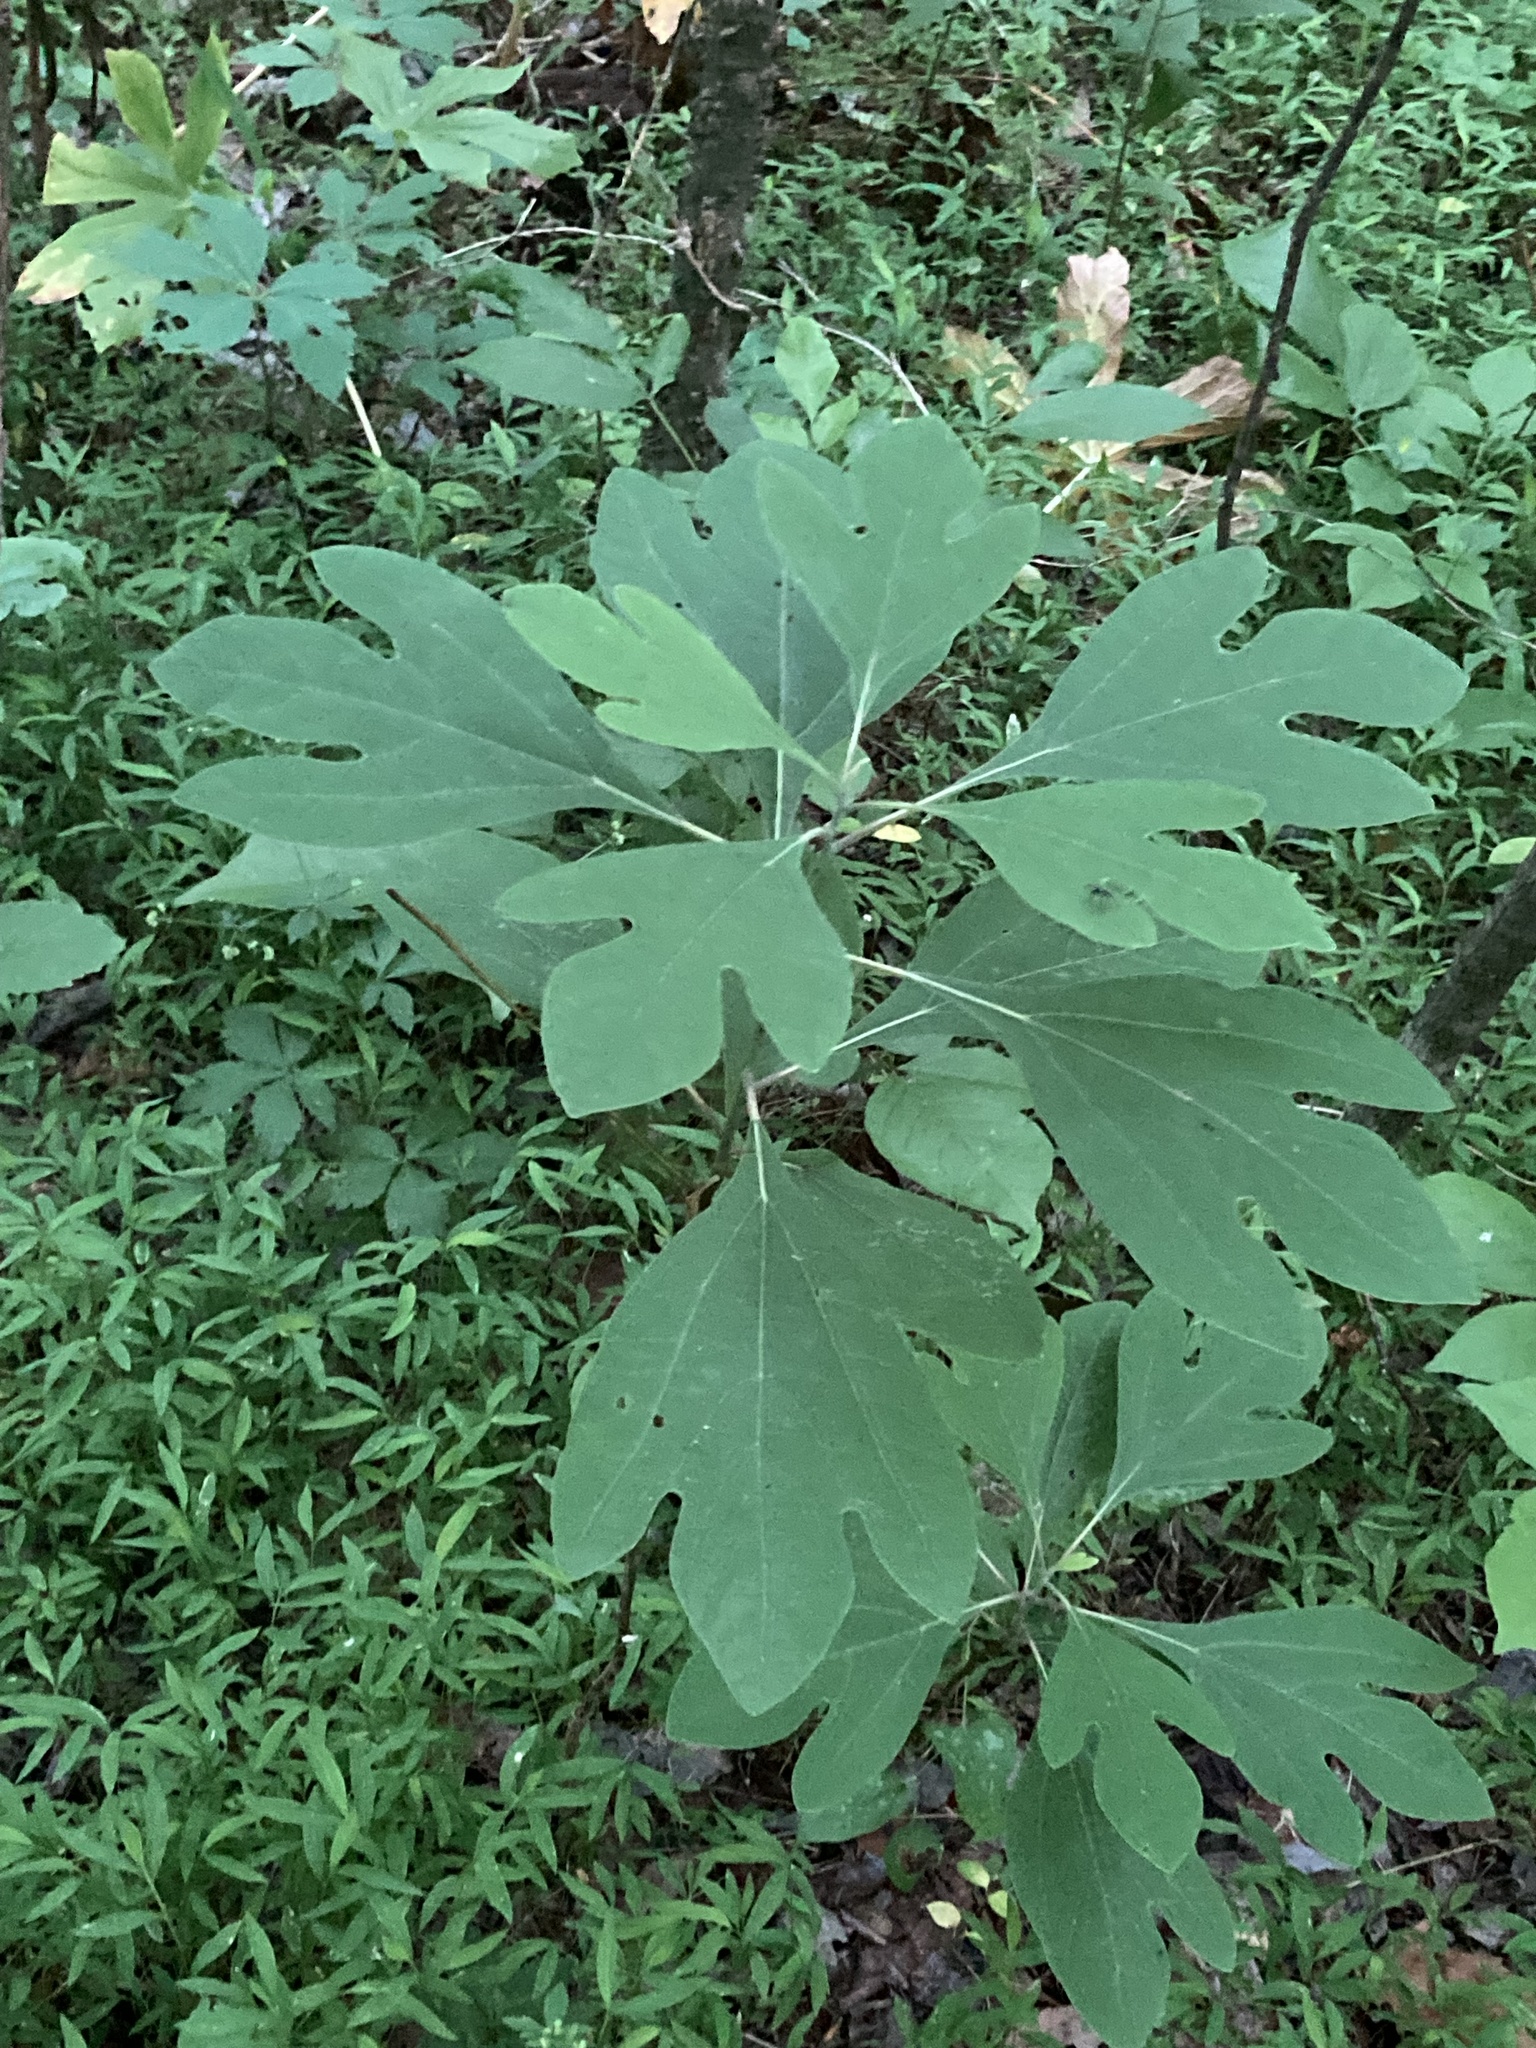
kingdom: Plantae
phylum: Tracheophyta
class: Magnoliopsida
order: Laurales
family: Lauraceae
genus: Sassafras
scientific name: Sassafras albidum
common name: Sassafras
